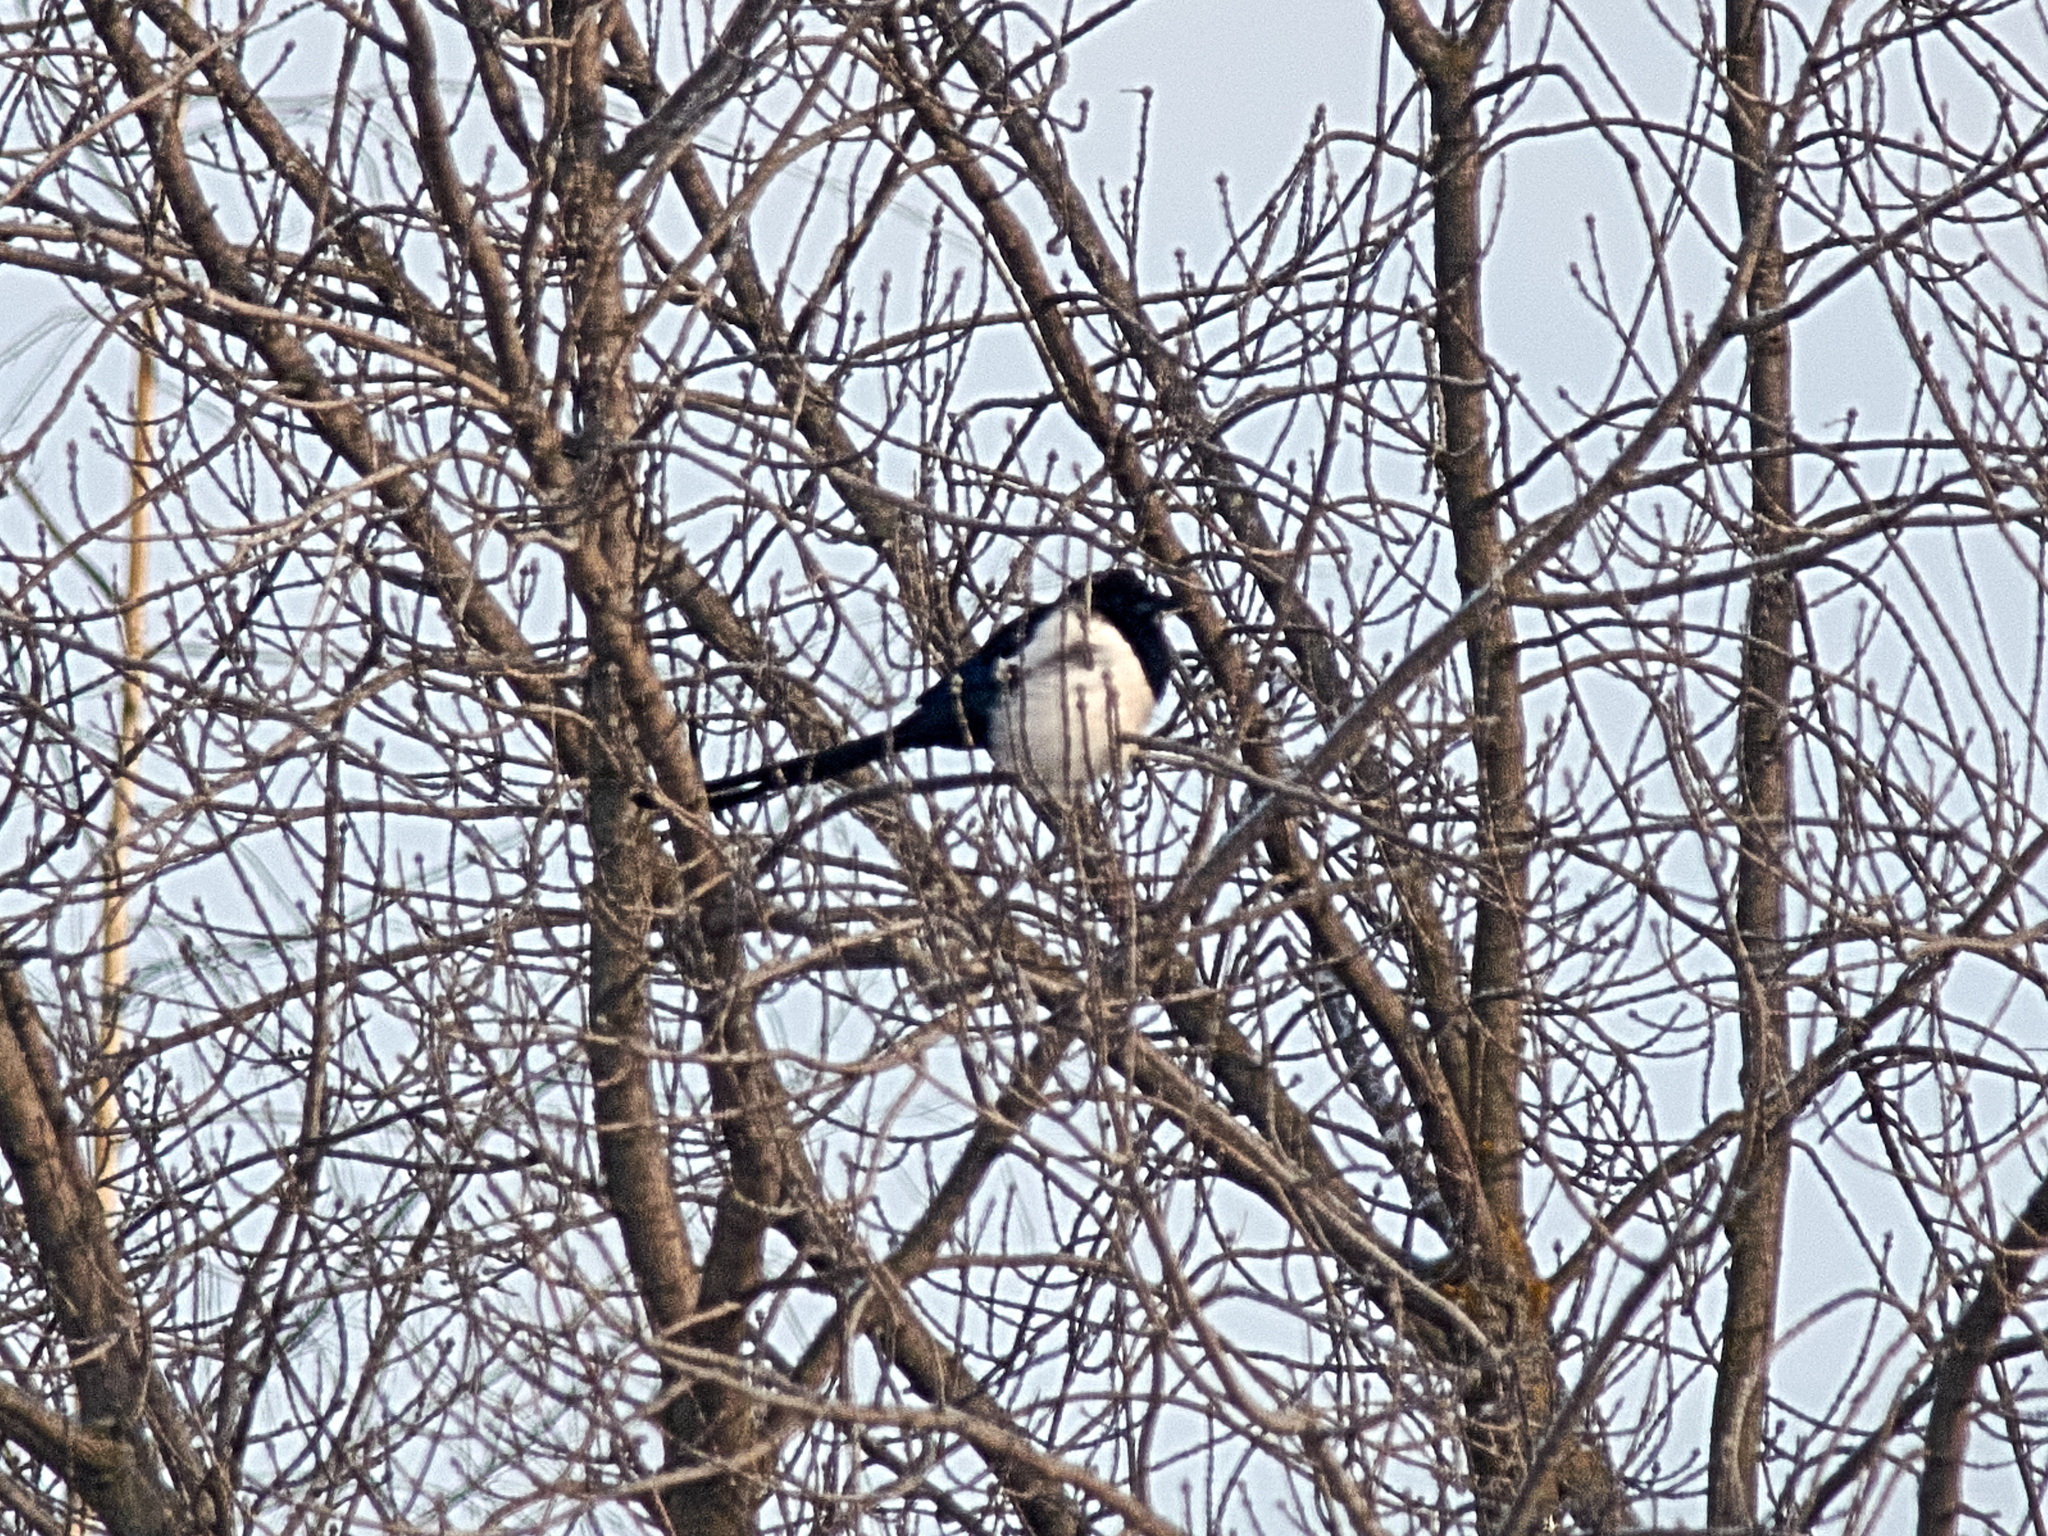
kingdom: Animalia
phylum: Chordata
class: Aves
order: Passeriformes
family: Corvidae
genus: Pica
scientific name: Pica pica
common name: Eurasian magpie
